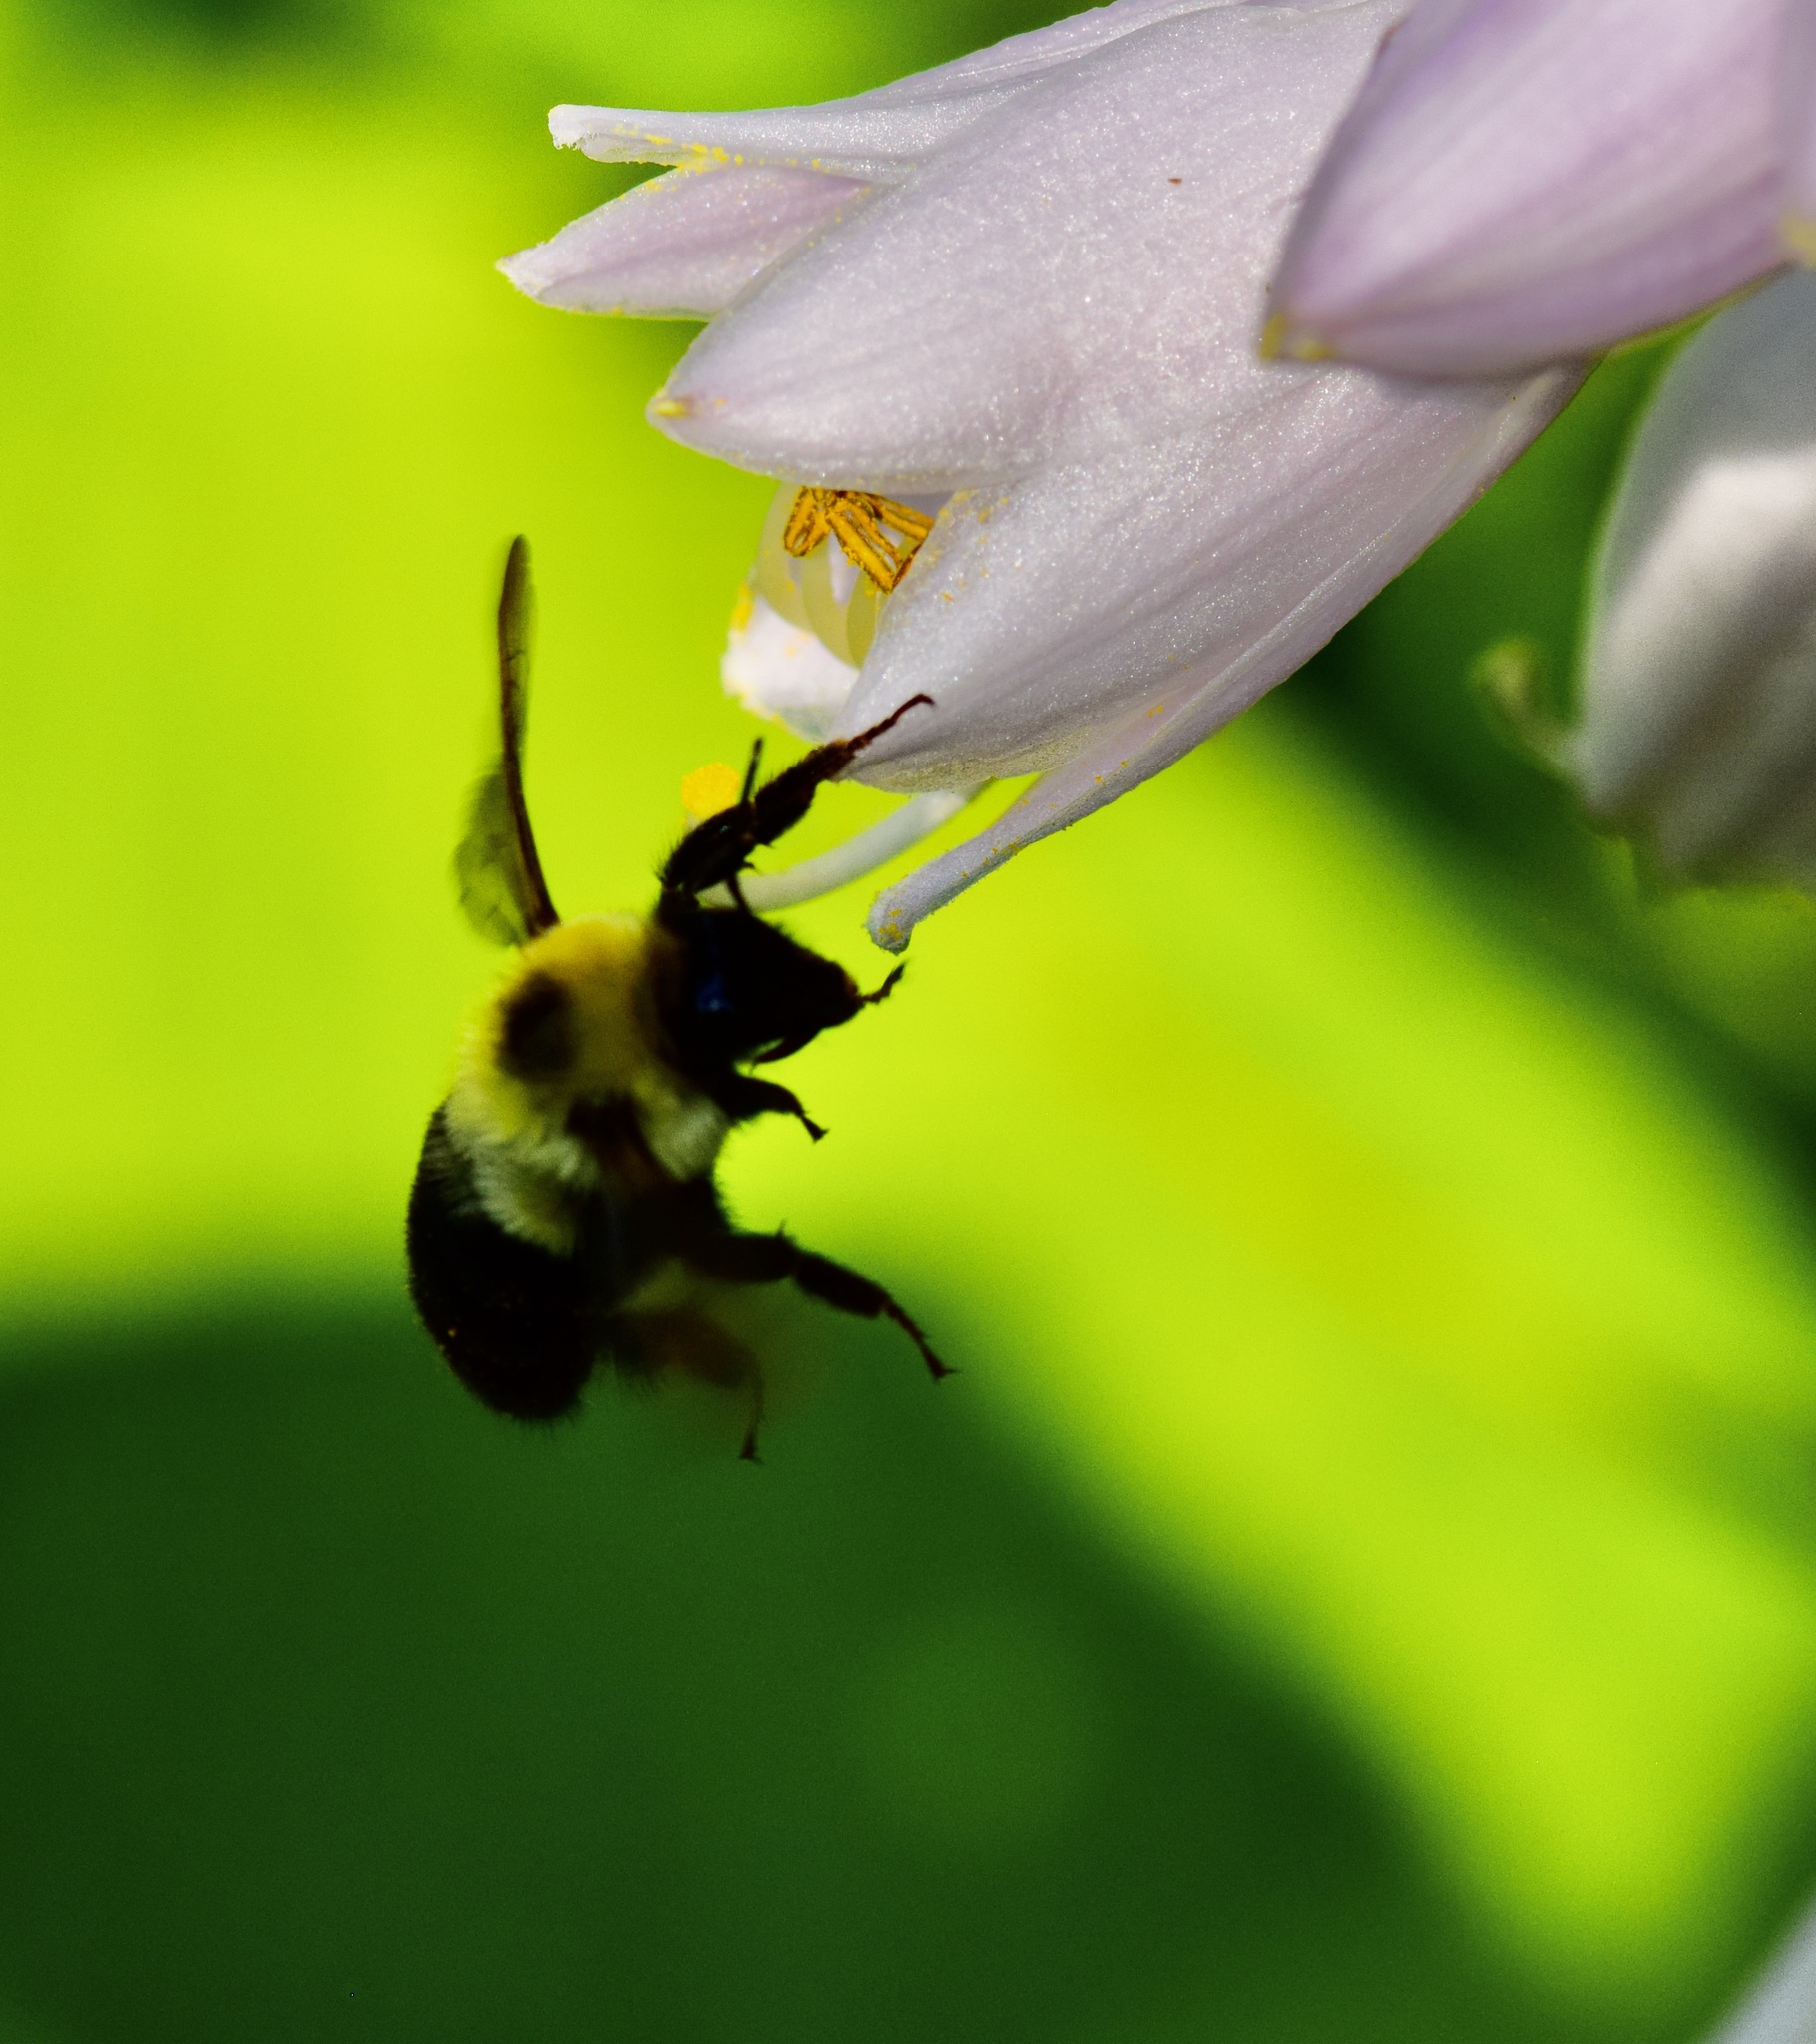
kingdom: Animalia
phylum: Arthropoda
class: Insecta
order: Hymenoptera
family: Apidae
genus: Bombus
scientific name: Bombus bimaculatus
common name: Two-spotted bumble bee
